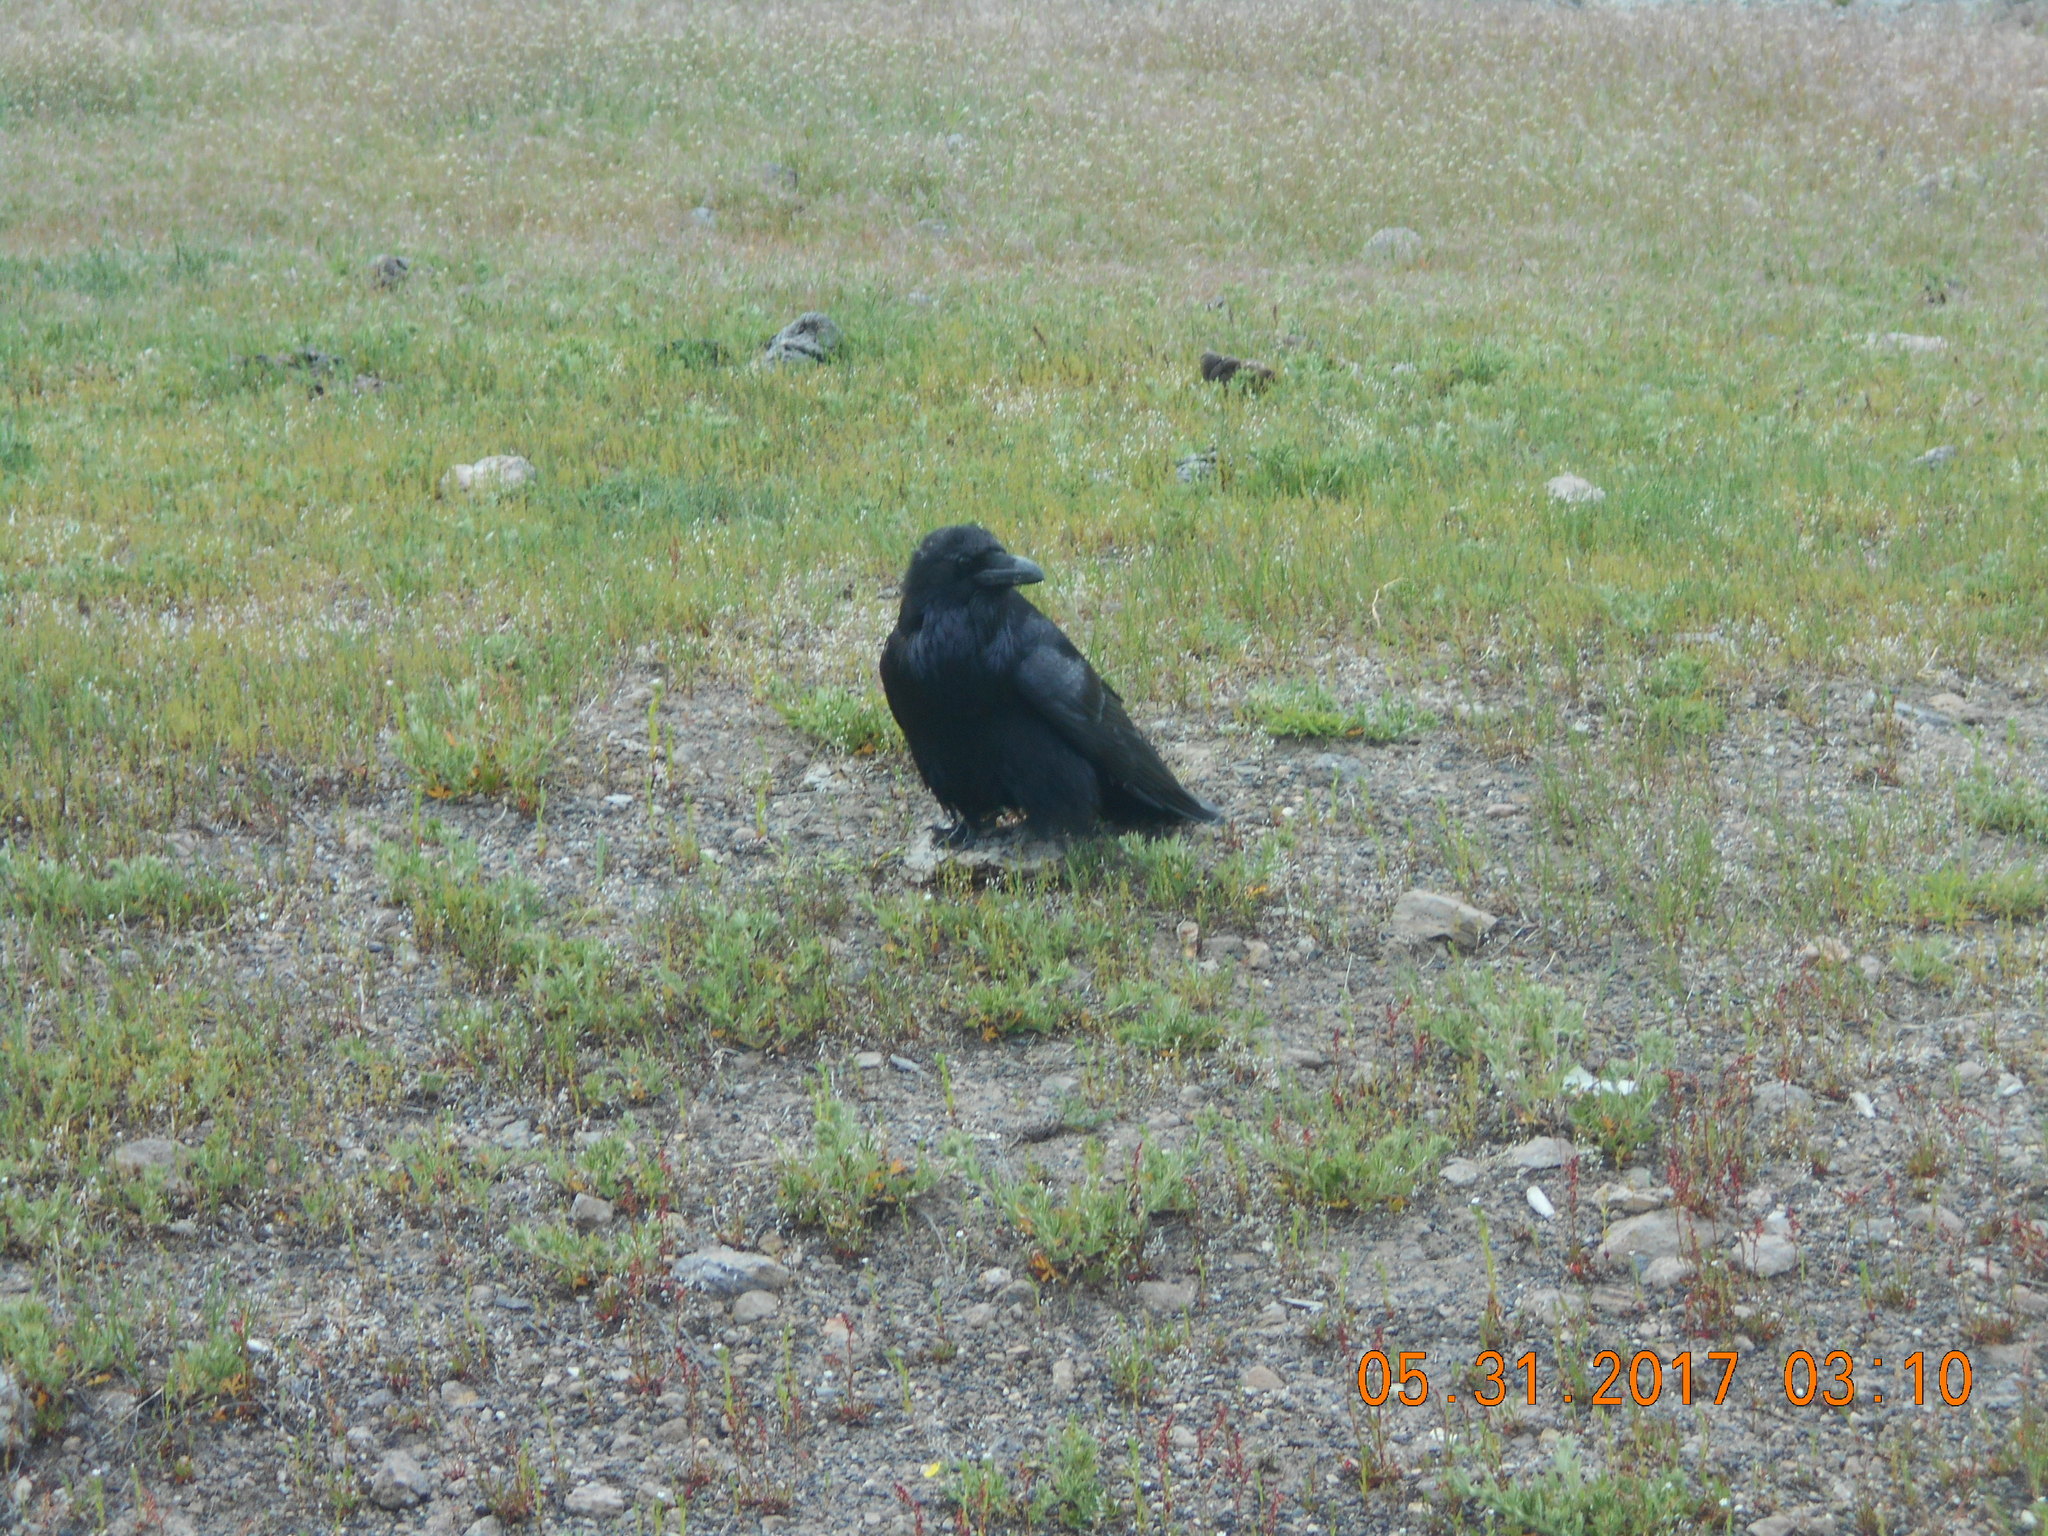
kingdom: Animalia
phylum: Chordata
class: Aves
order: Passeriformes
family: Corvidae
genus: Corvus
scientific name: Corvus corax
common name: Common raven
